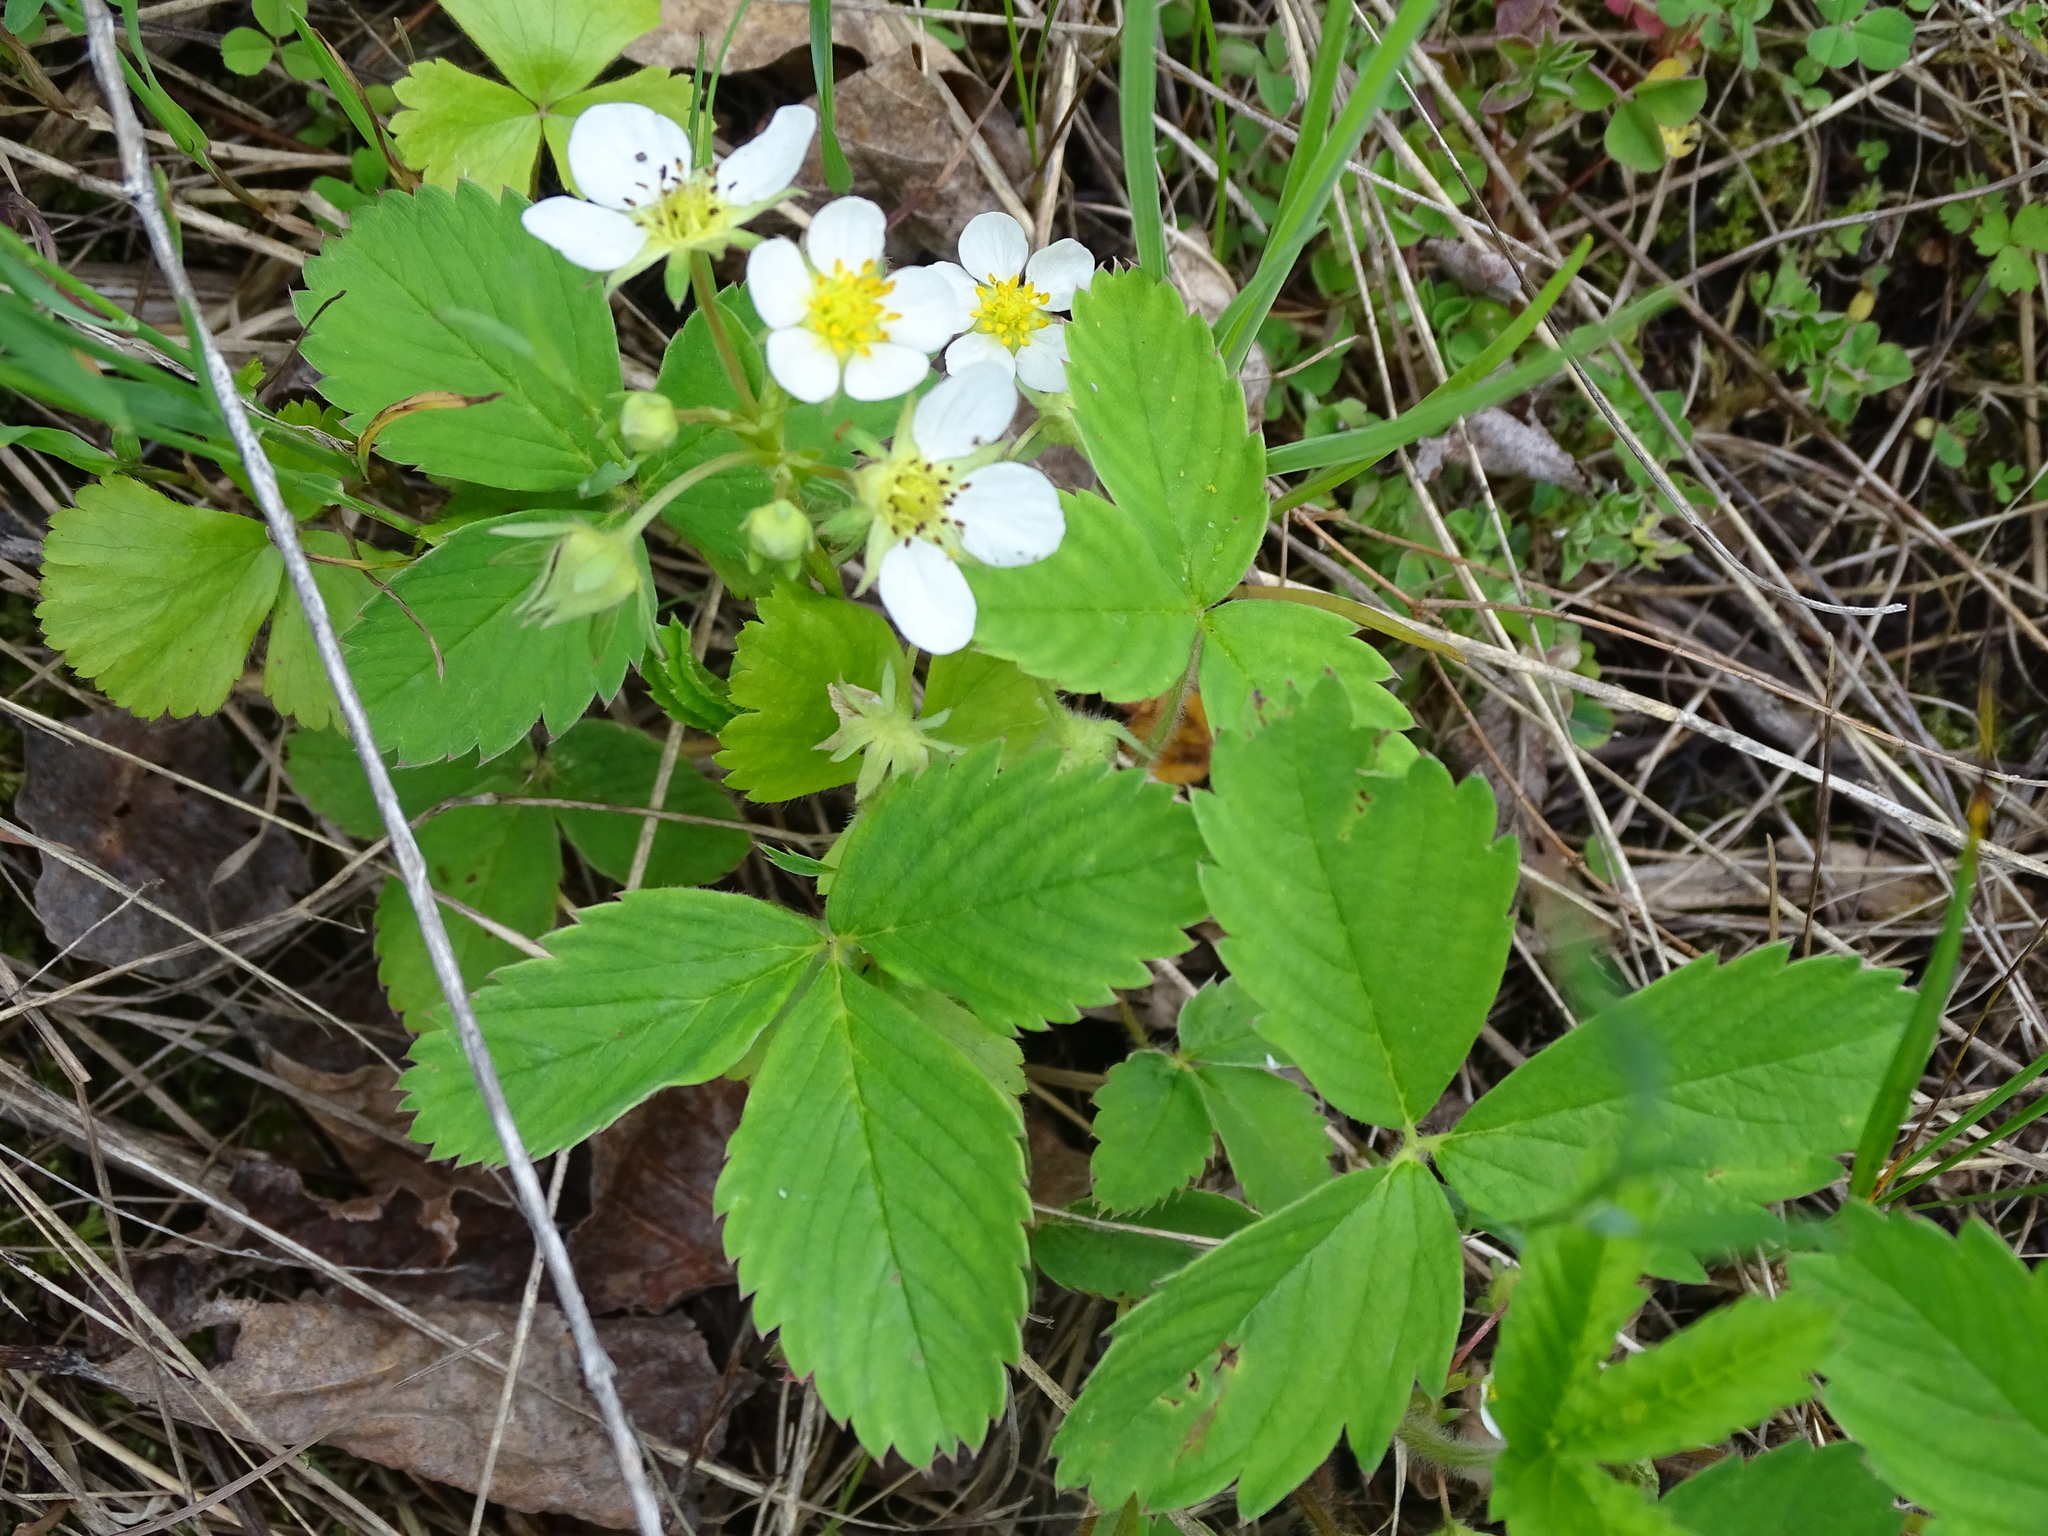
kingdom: Plantae
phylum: Tracheophyta
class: Magnoliopsida
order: Rosales
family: Rosaceae
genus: Fragaria
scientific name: Fragaria virginiana
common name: Thickleaved wild strawberry
